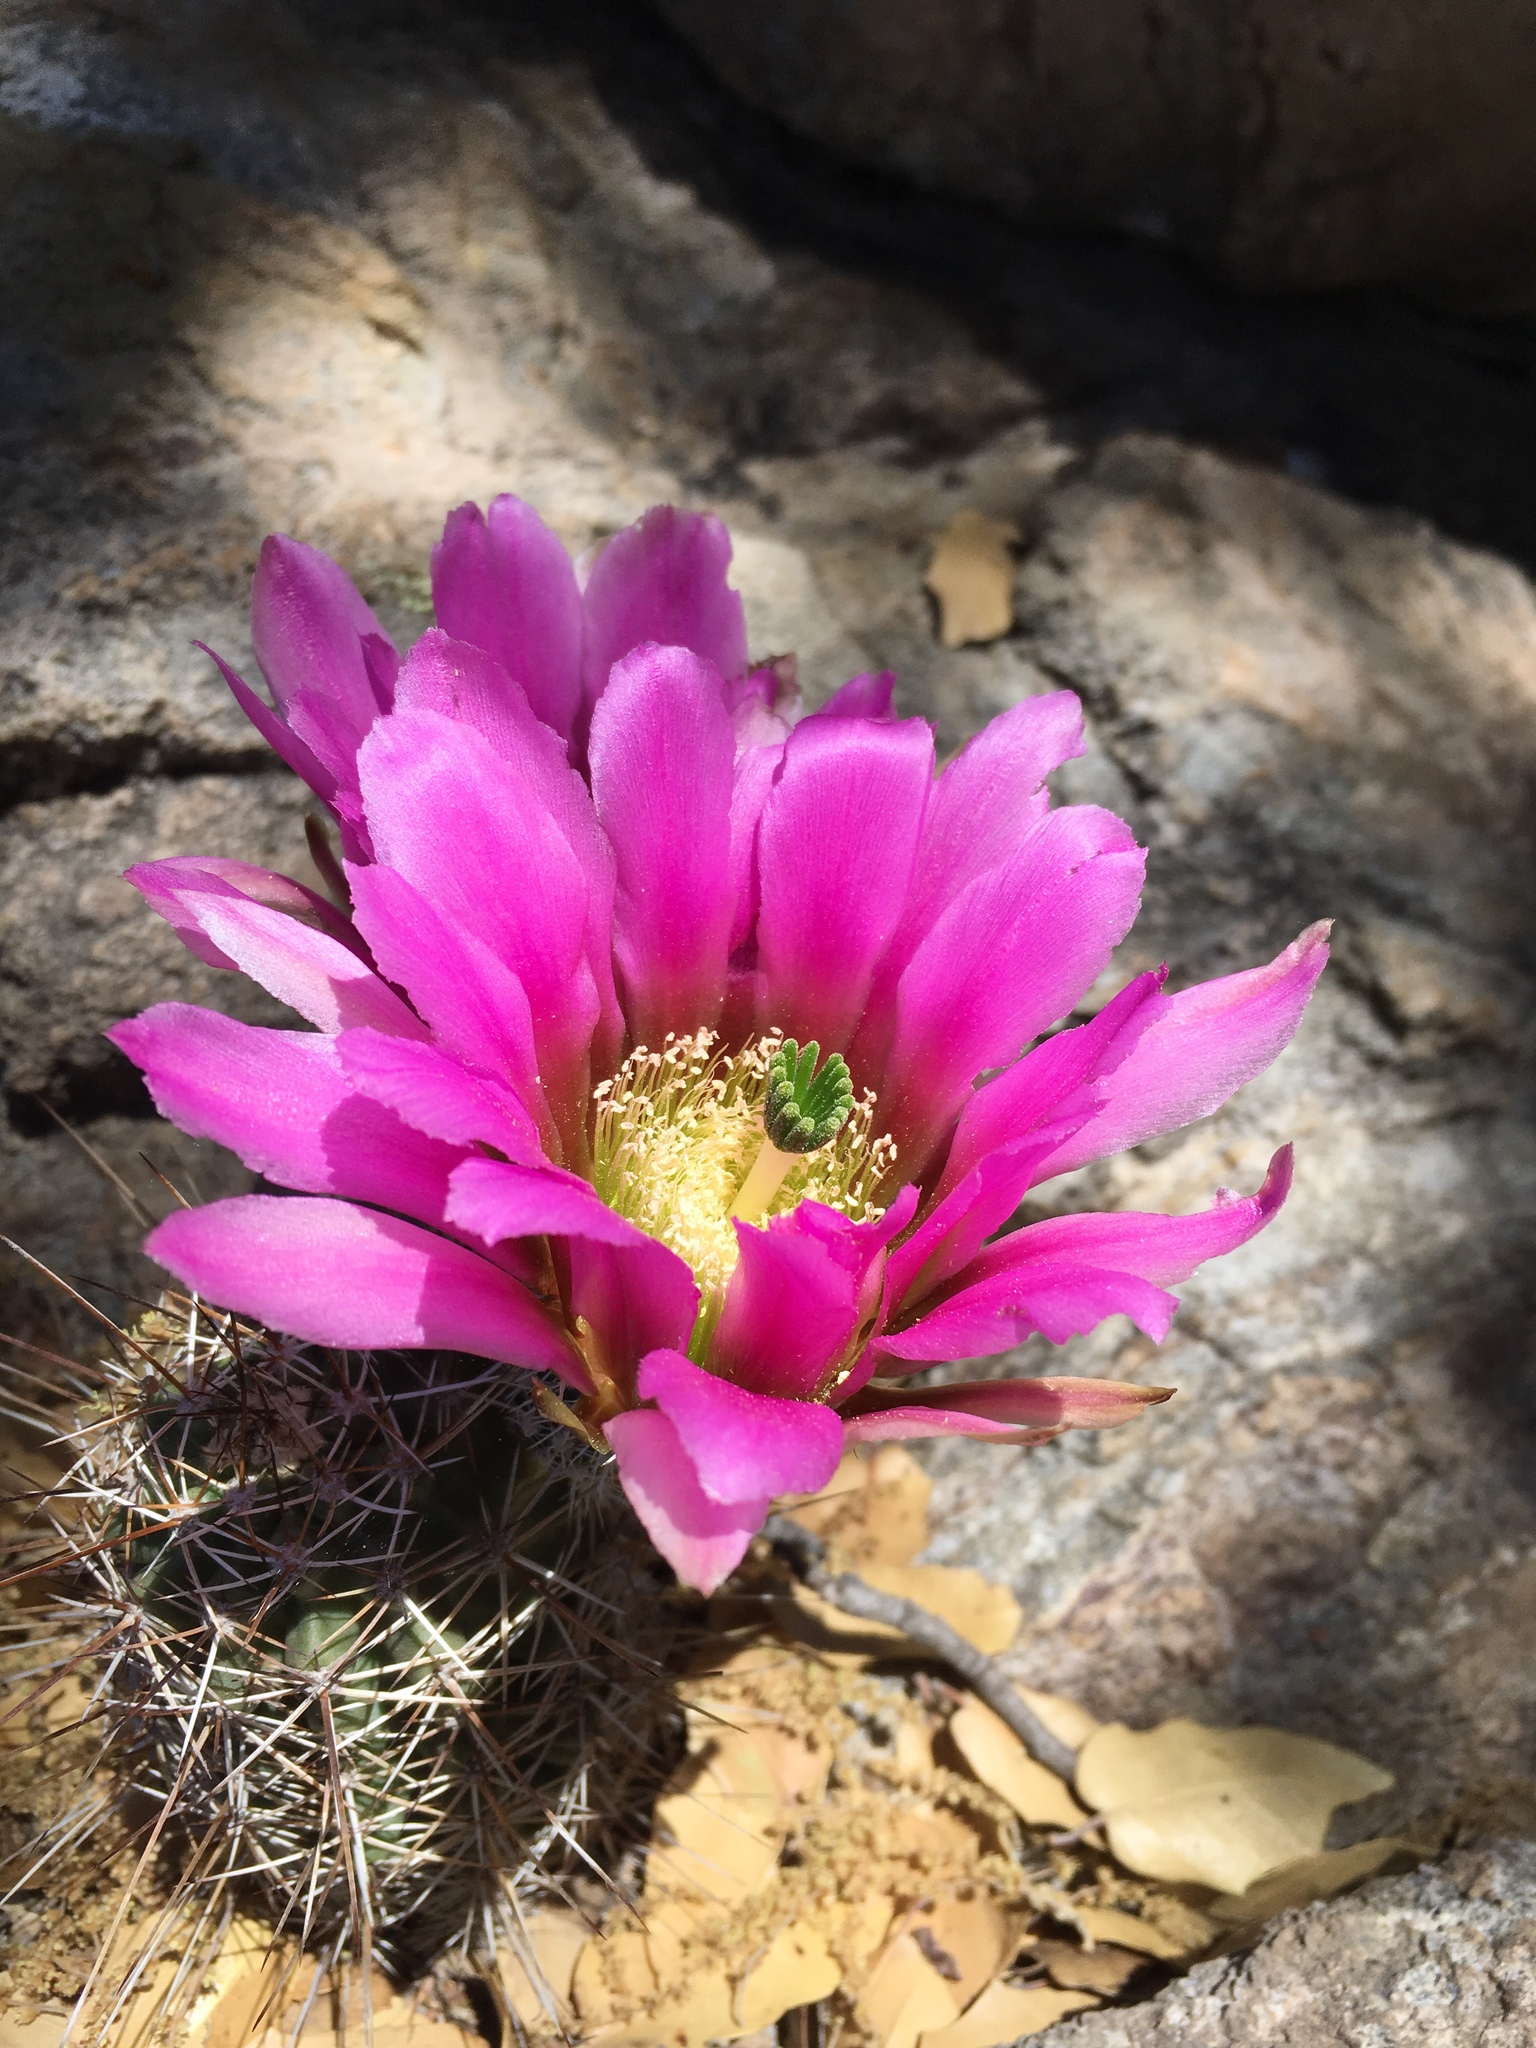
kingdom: Plantae
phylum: Tracheophyta
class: Magnoliopsida
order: Caryophyllales
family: Cactaceae
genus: Echinocereus
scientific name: Echinocereus fendleri
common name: Fendler's hedgehog cactus
